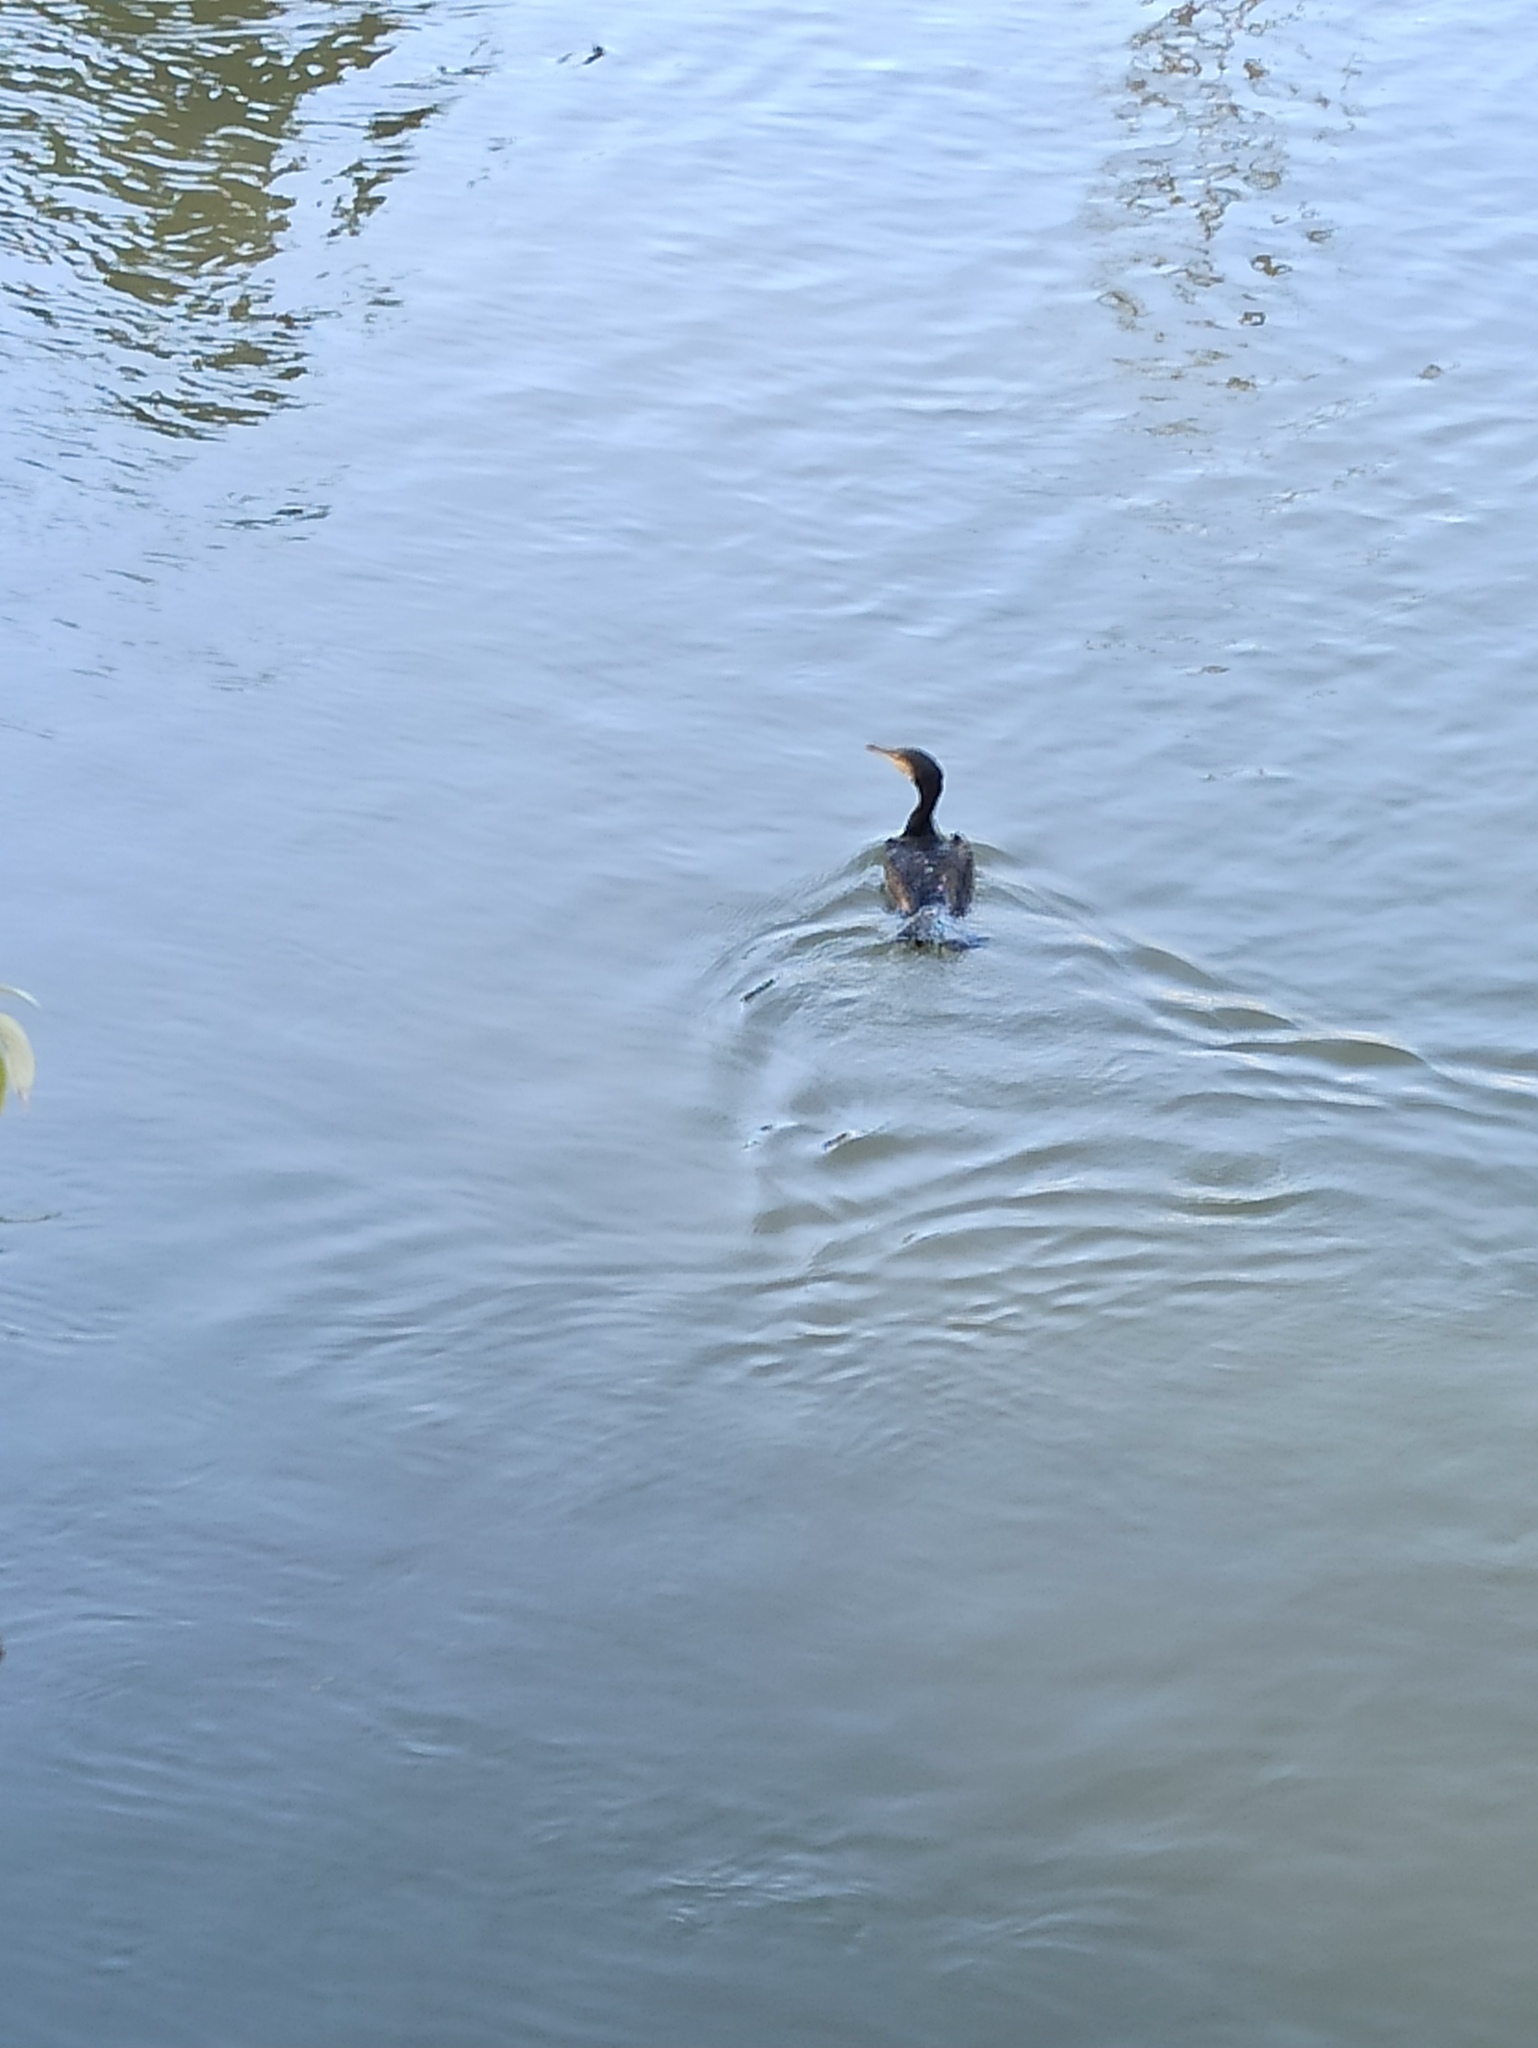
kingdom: Animalia
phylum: Chordata
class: Aves
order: Suliformes
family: Phalacrocoracidae
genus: Phalacrocorax
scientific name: Phalacrocorax carbo
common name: Great cormorant
